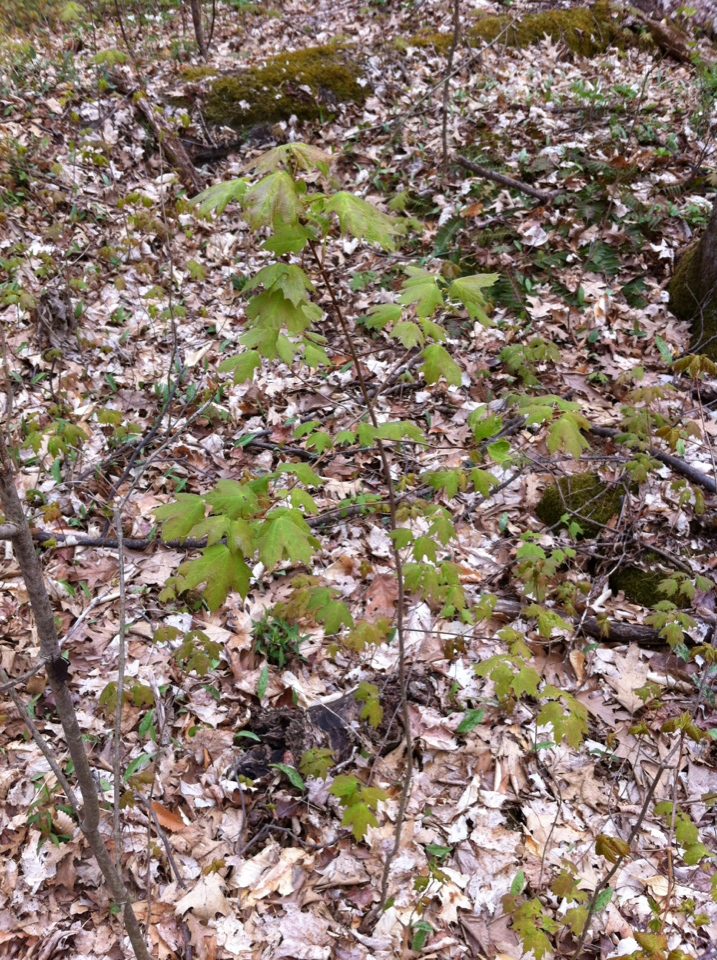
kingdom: Plantae
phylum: Tracheophyta
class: Magnoliopsida
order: Sapindales
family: Sapindaceae
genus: Acer
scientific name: Acer saccharum
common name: Sugar maple
